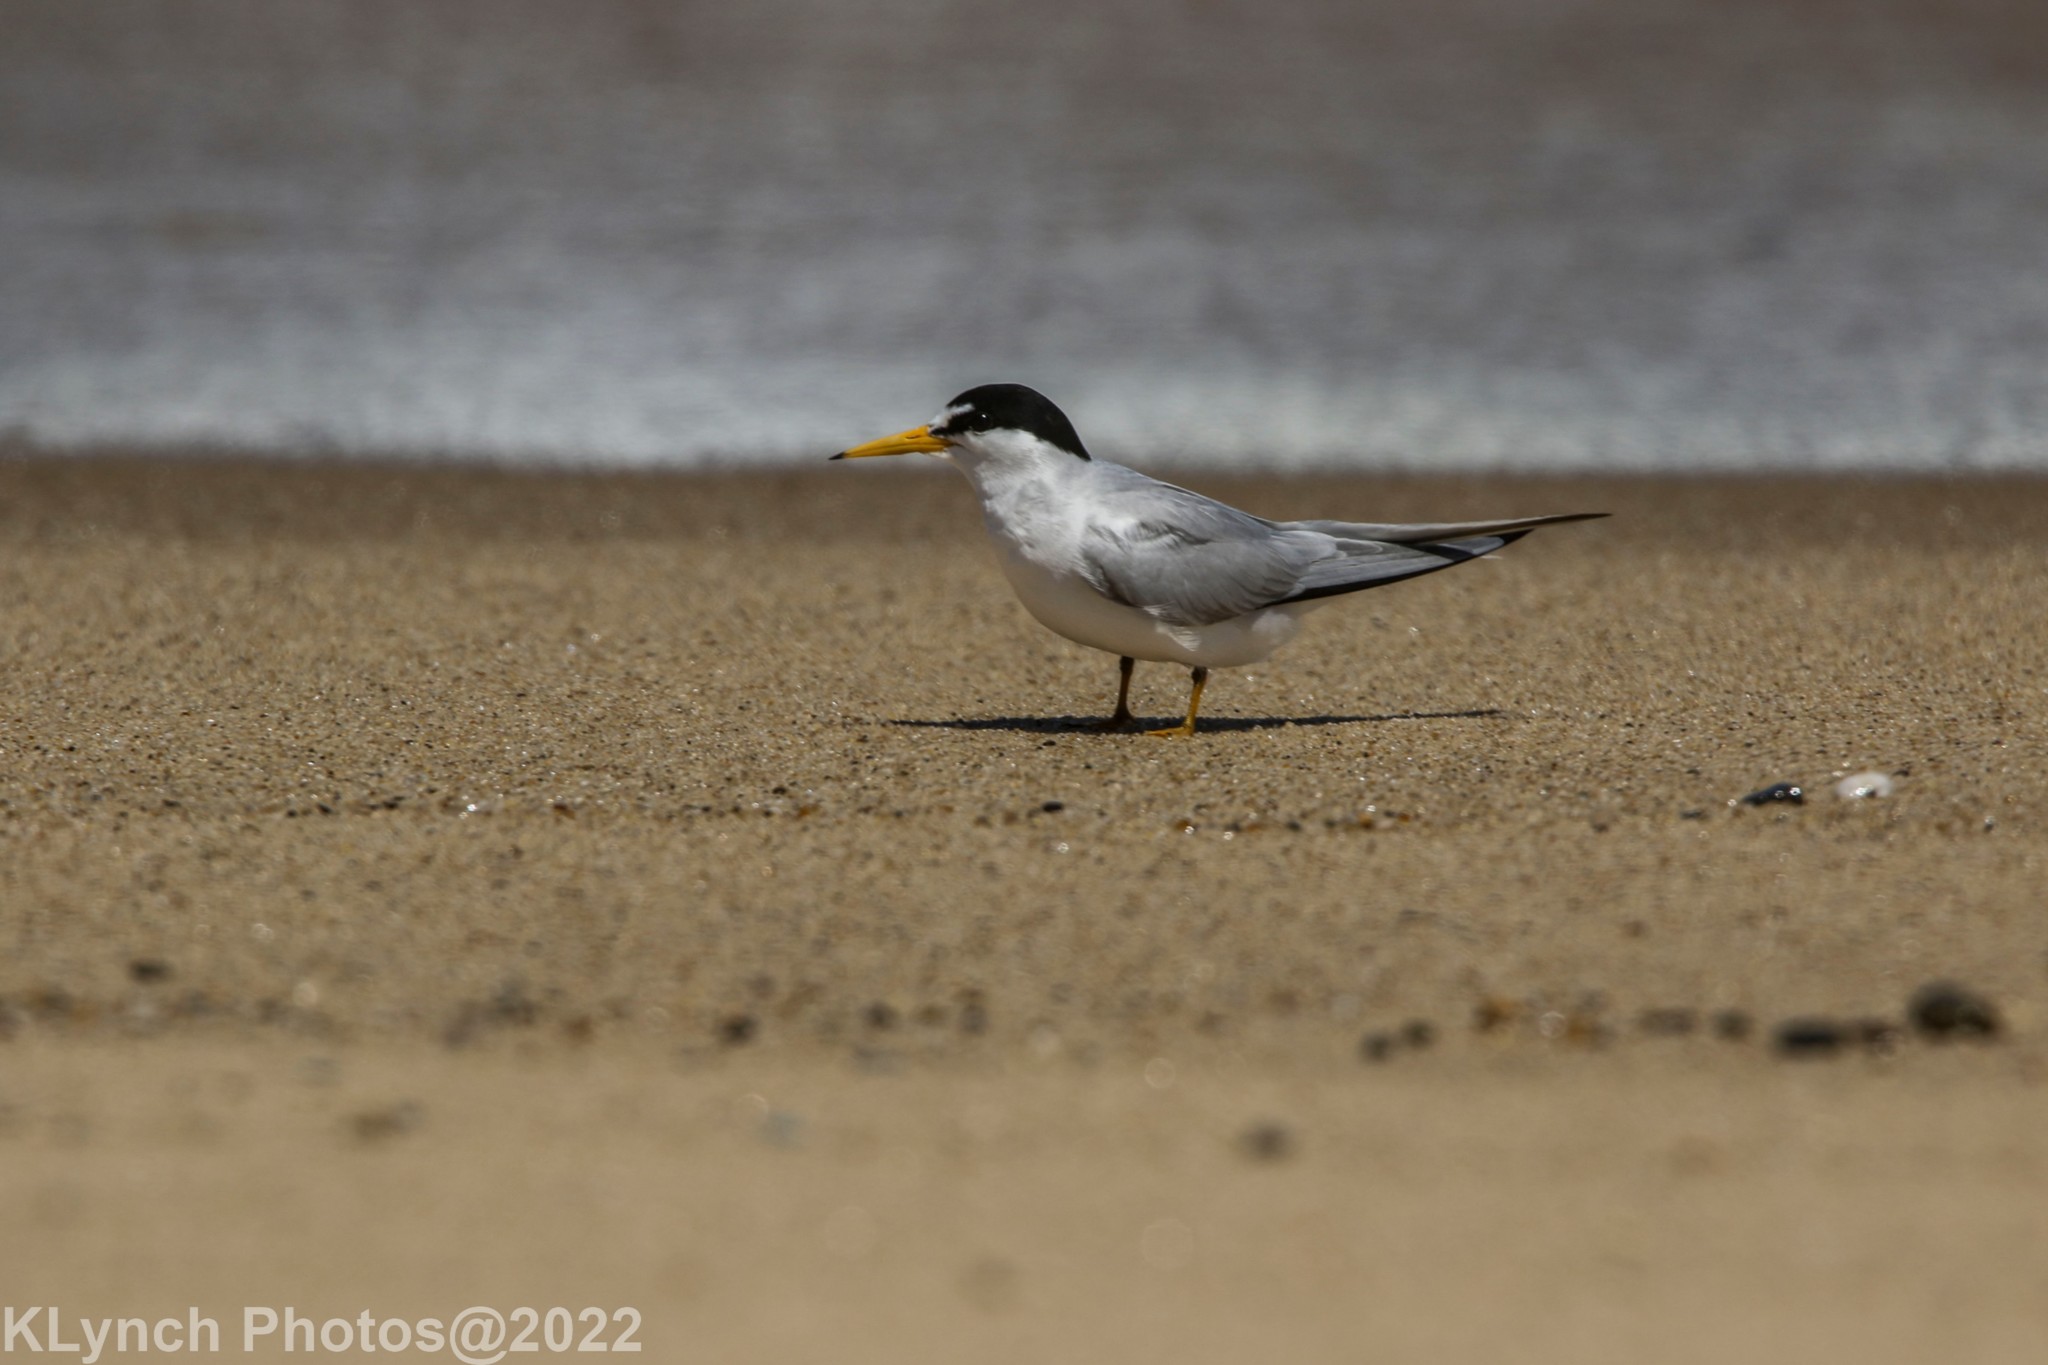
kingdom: Animalia
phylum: Chordata
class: Aves
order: Charadriiformes
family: Laridae
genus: Sternula
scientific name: Sternula antillarum
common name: Least tern
